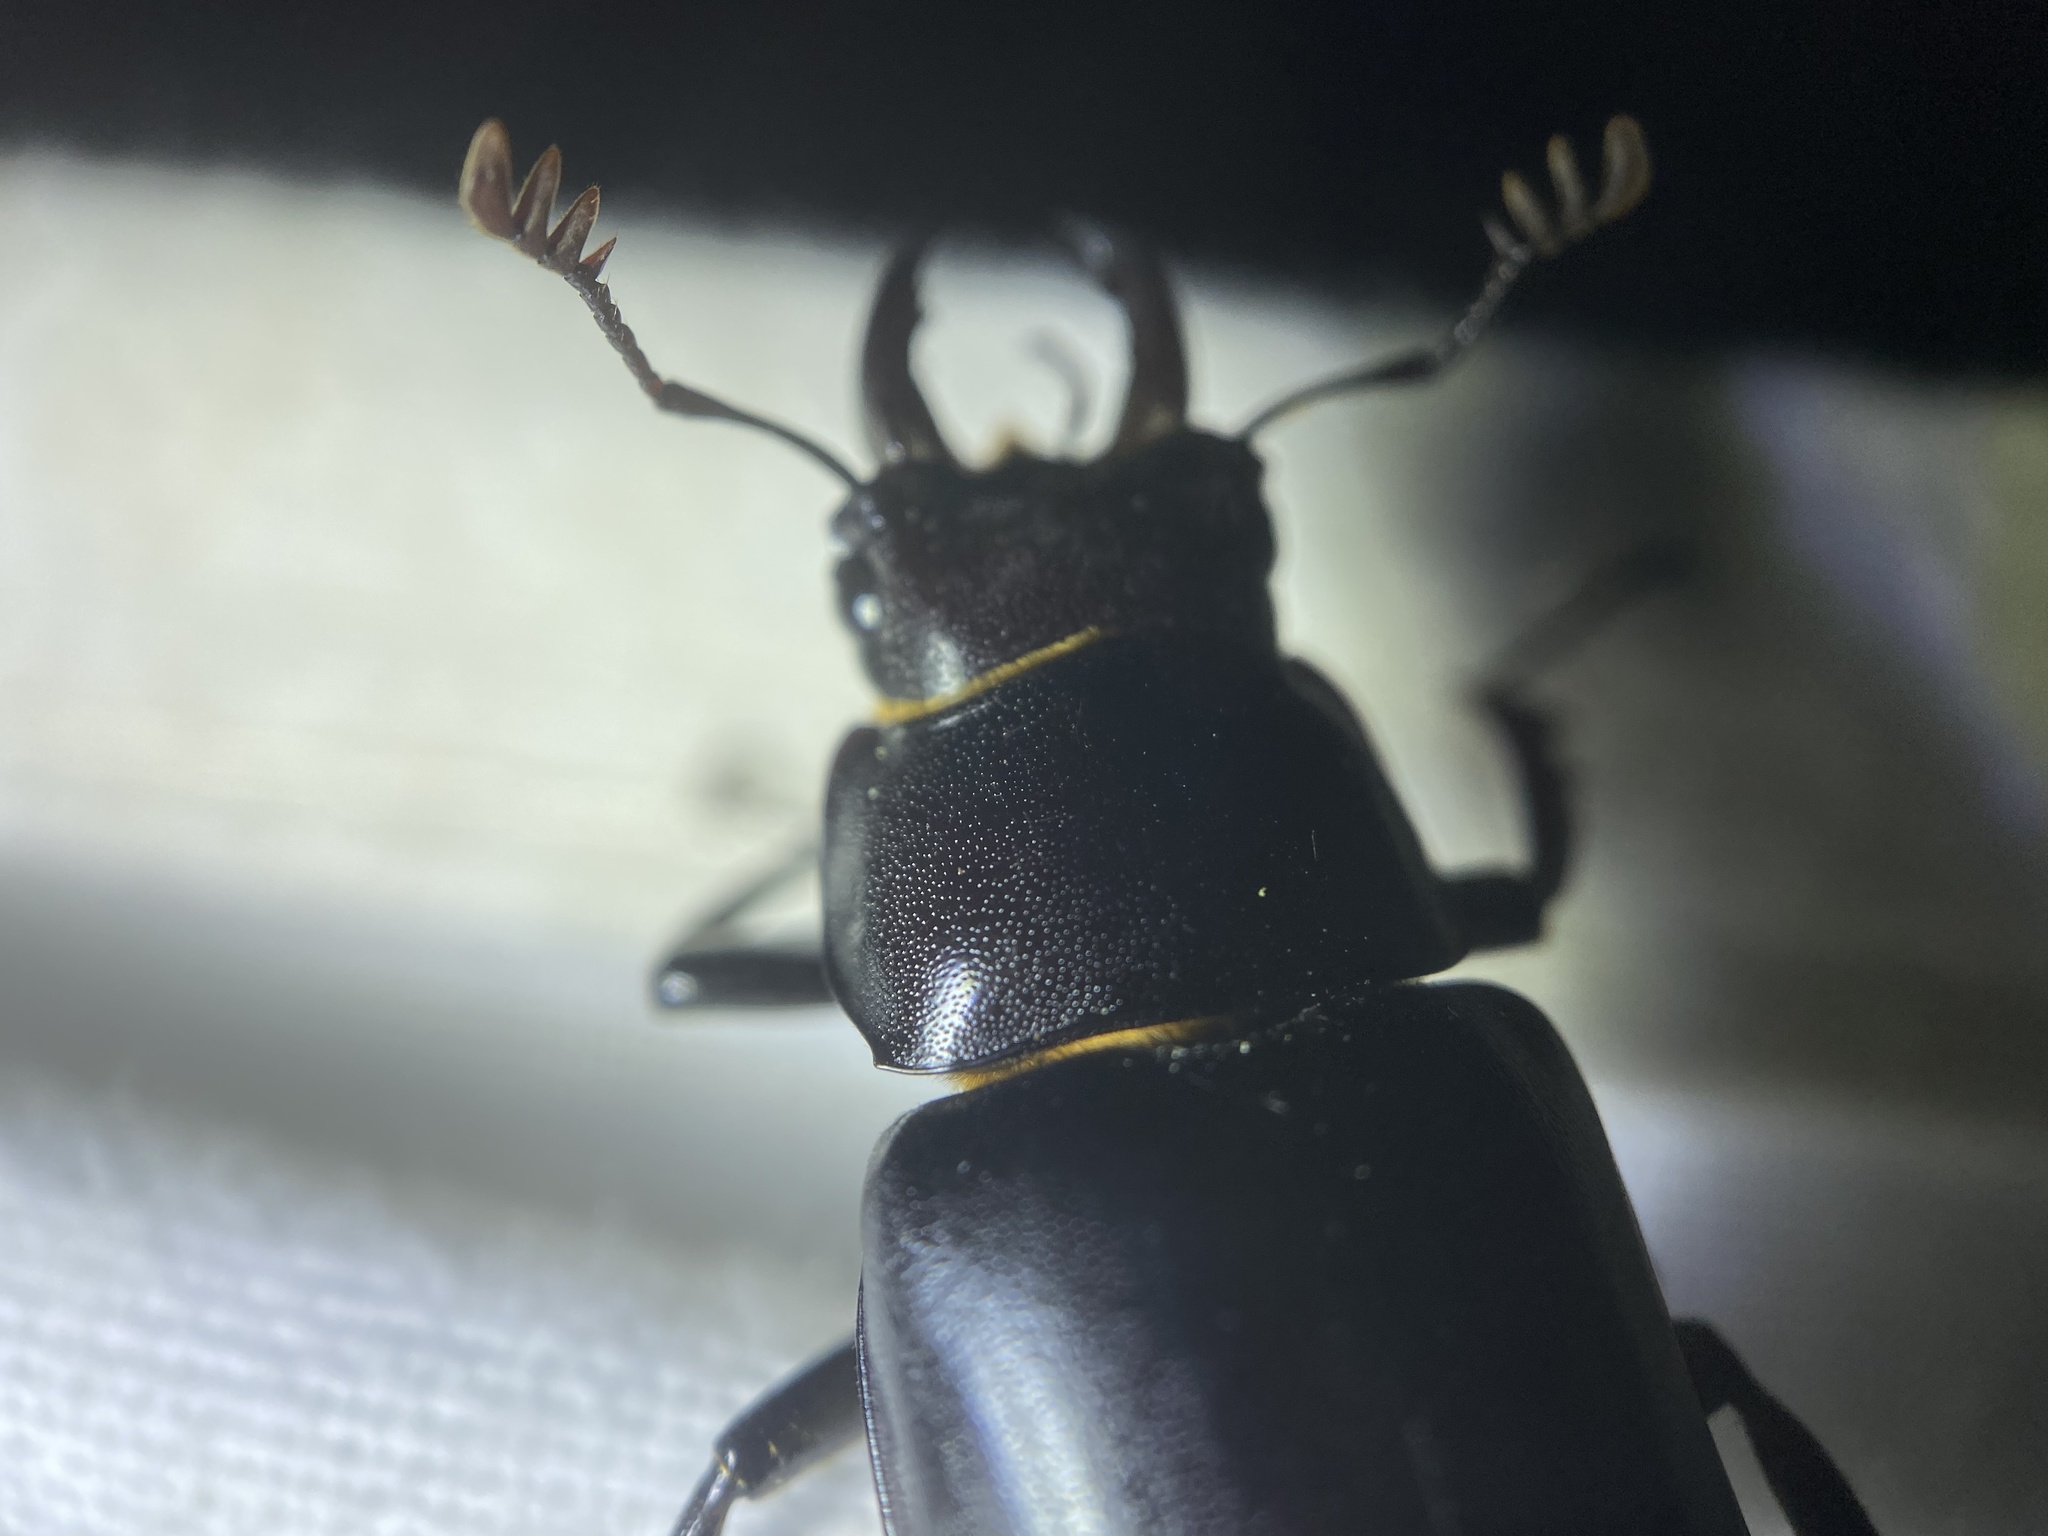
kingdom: Animalia
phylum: Arthropoda
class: Insecta
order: Coleoptera
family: Lucanidae
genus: Lucanus
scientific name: Lucanus placidus
